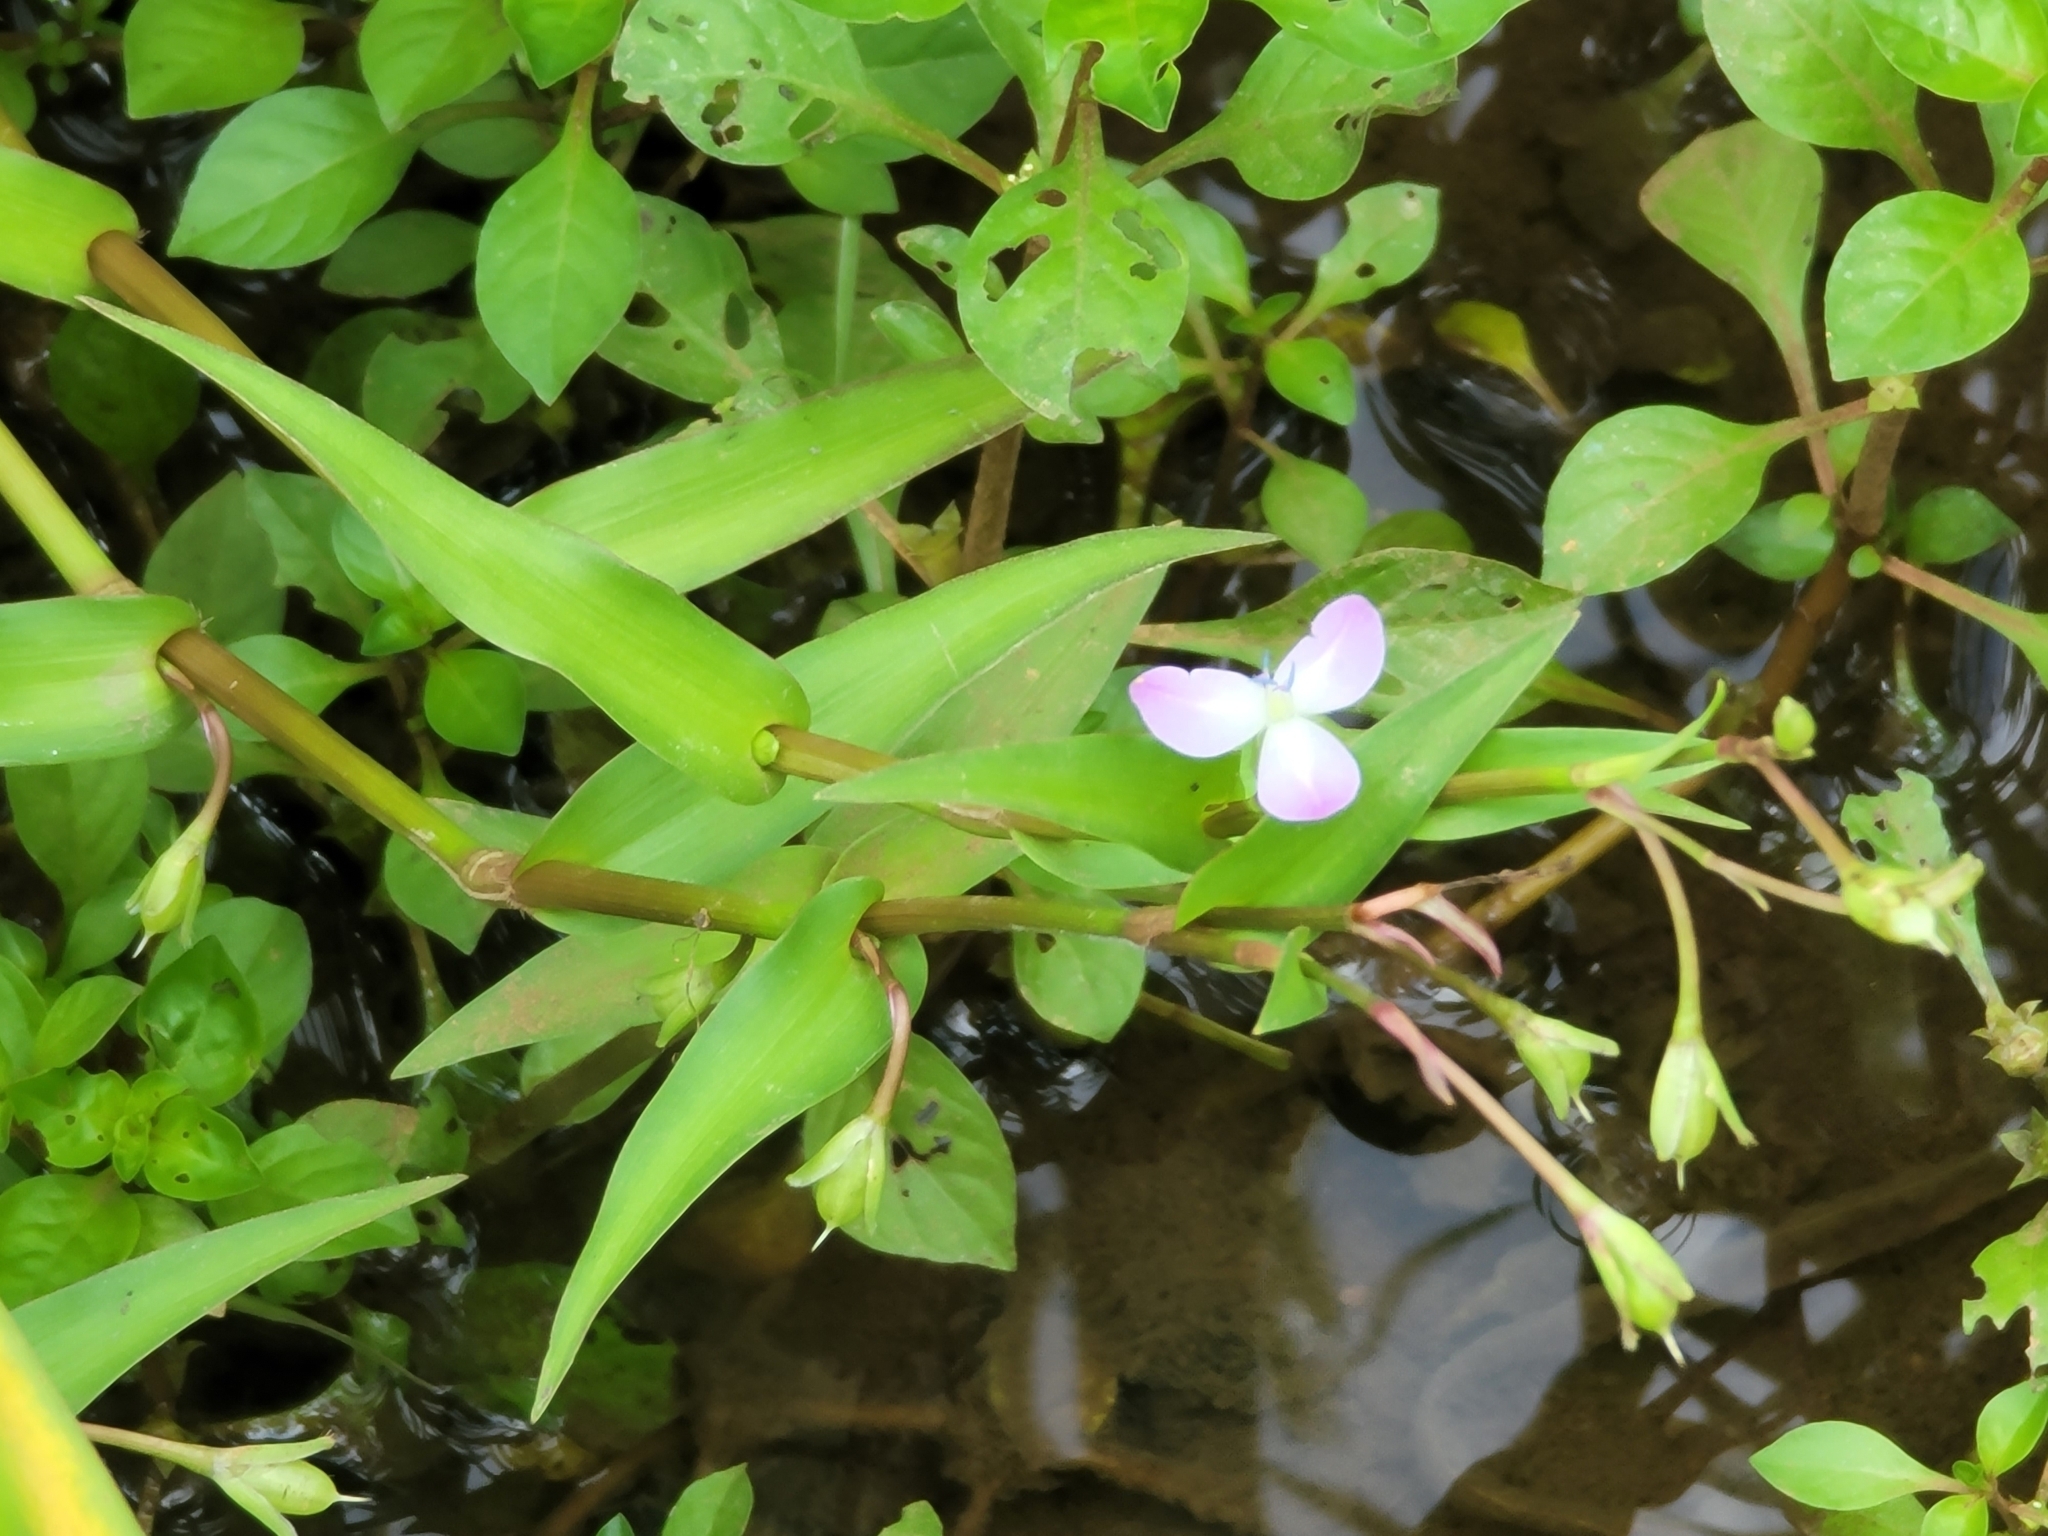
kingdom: Plantae
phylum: Tracheophyta
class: Liliopsida
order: Commelinales
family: Commelinaceae
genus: Murdannia
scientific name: Murdannia keisak
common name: Wartremoving herb
